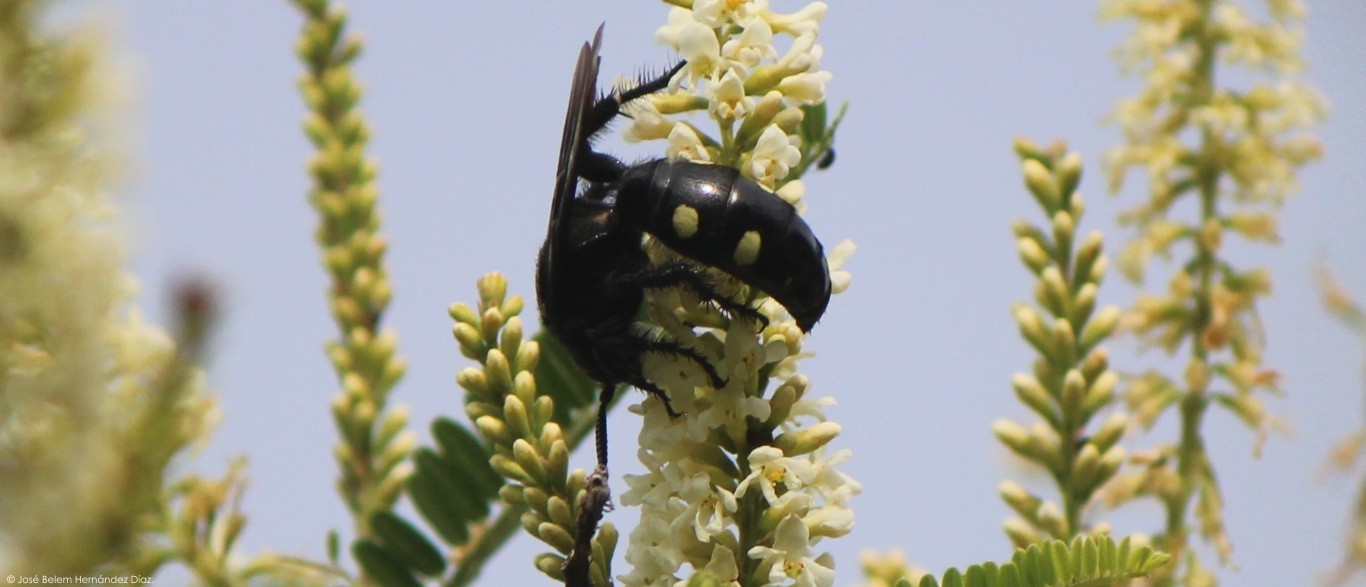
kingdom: Animalia
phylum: Arthropoda
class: Insecta
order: Hymenoptera
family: Scoliidae
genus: Scolia
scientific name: Scolia guttata
